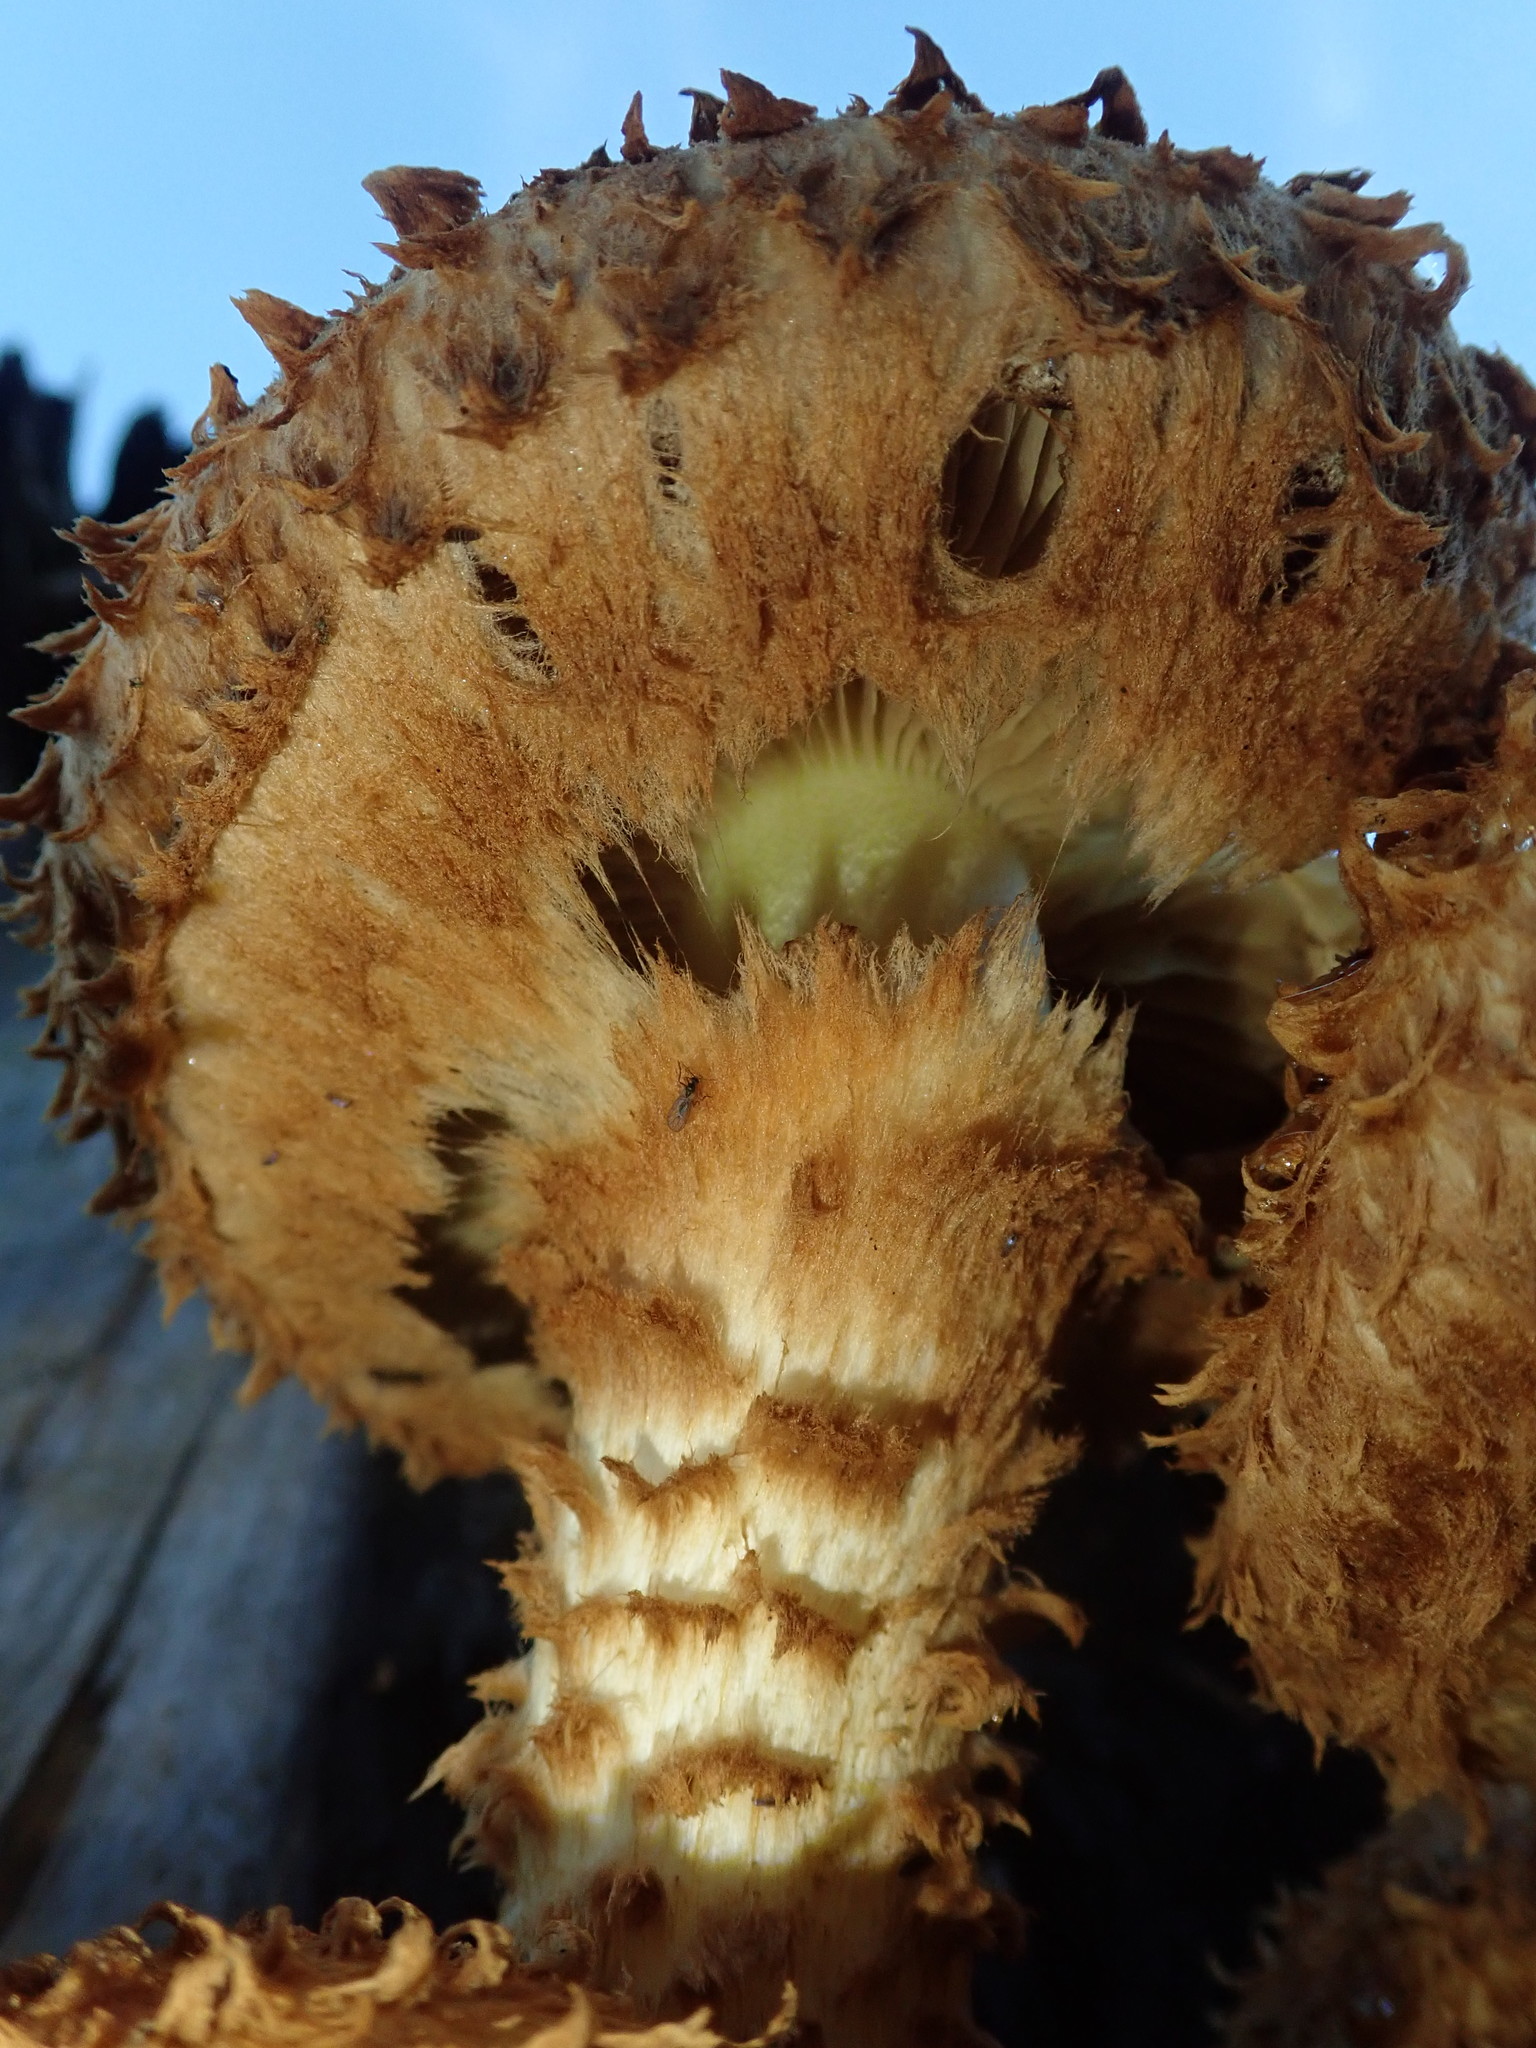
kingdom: Fungi
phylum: Basidiomycota
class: Agaricomycetes
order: Agaricales
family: Strophariaceae
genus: Pholiota
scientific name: Pholiota squarrosa
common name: Shaggy pholiota
